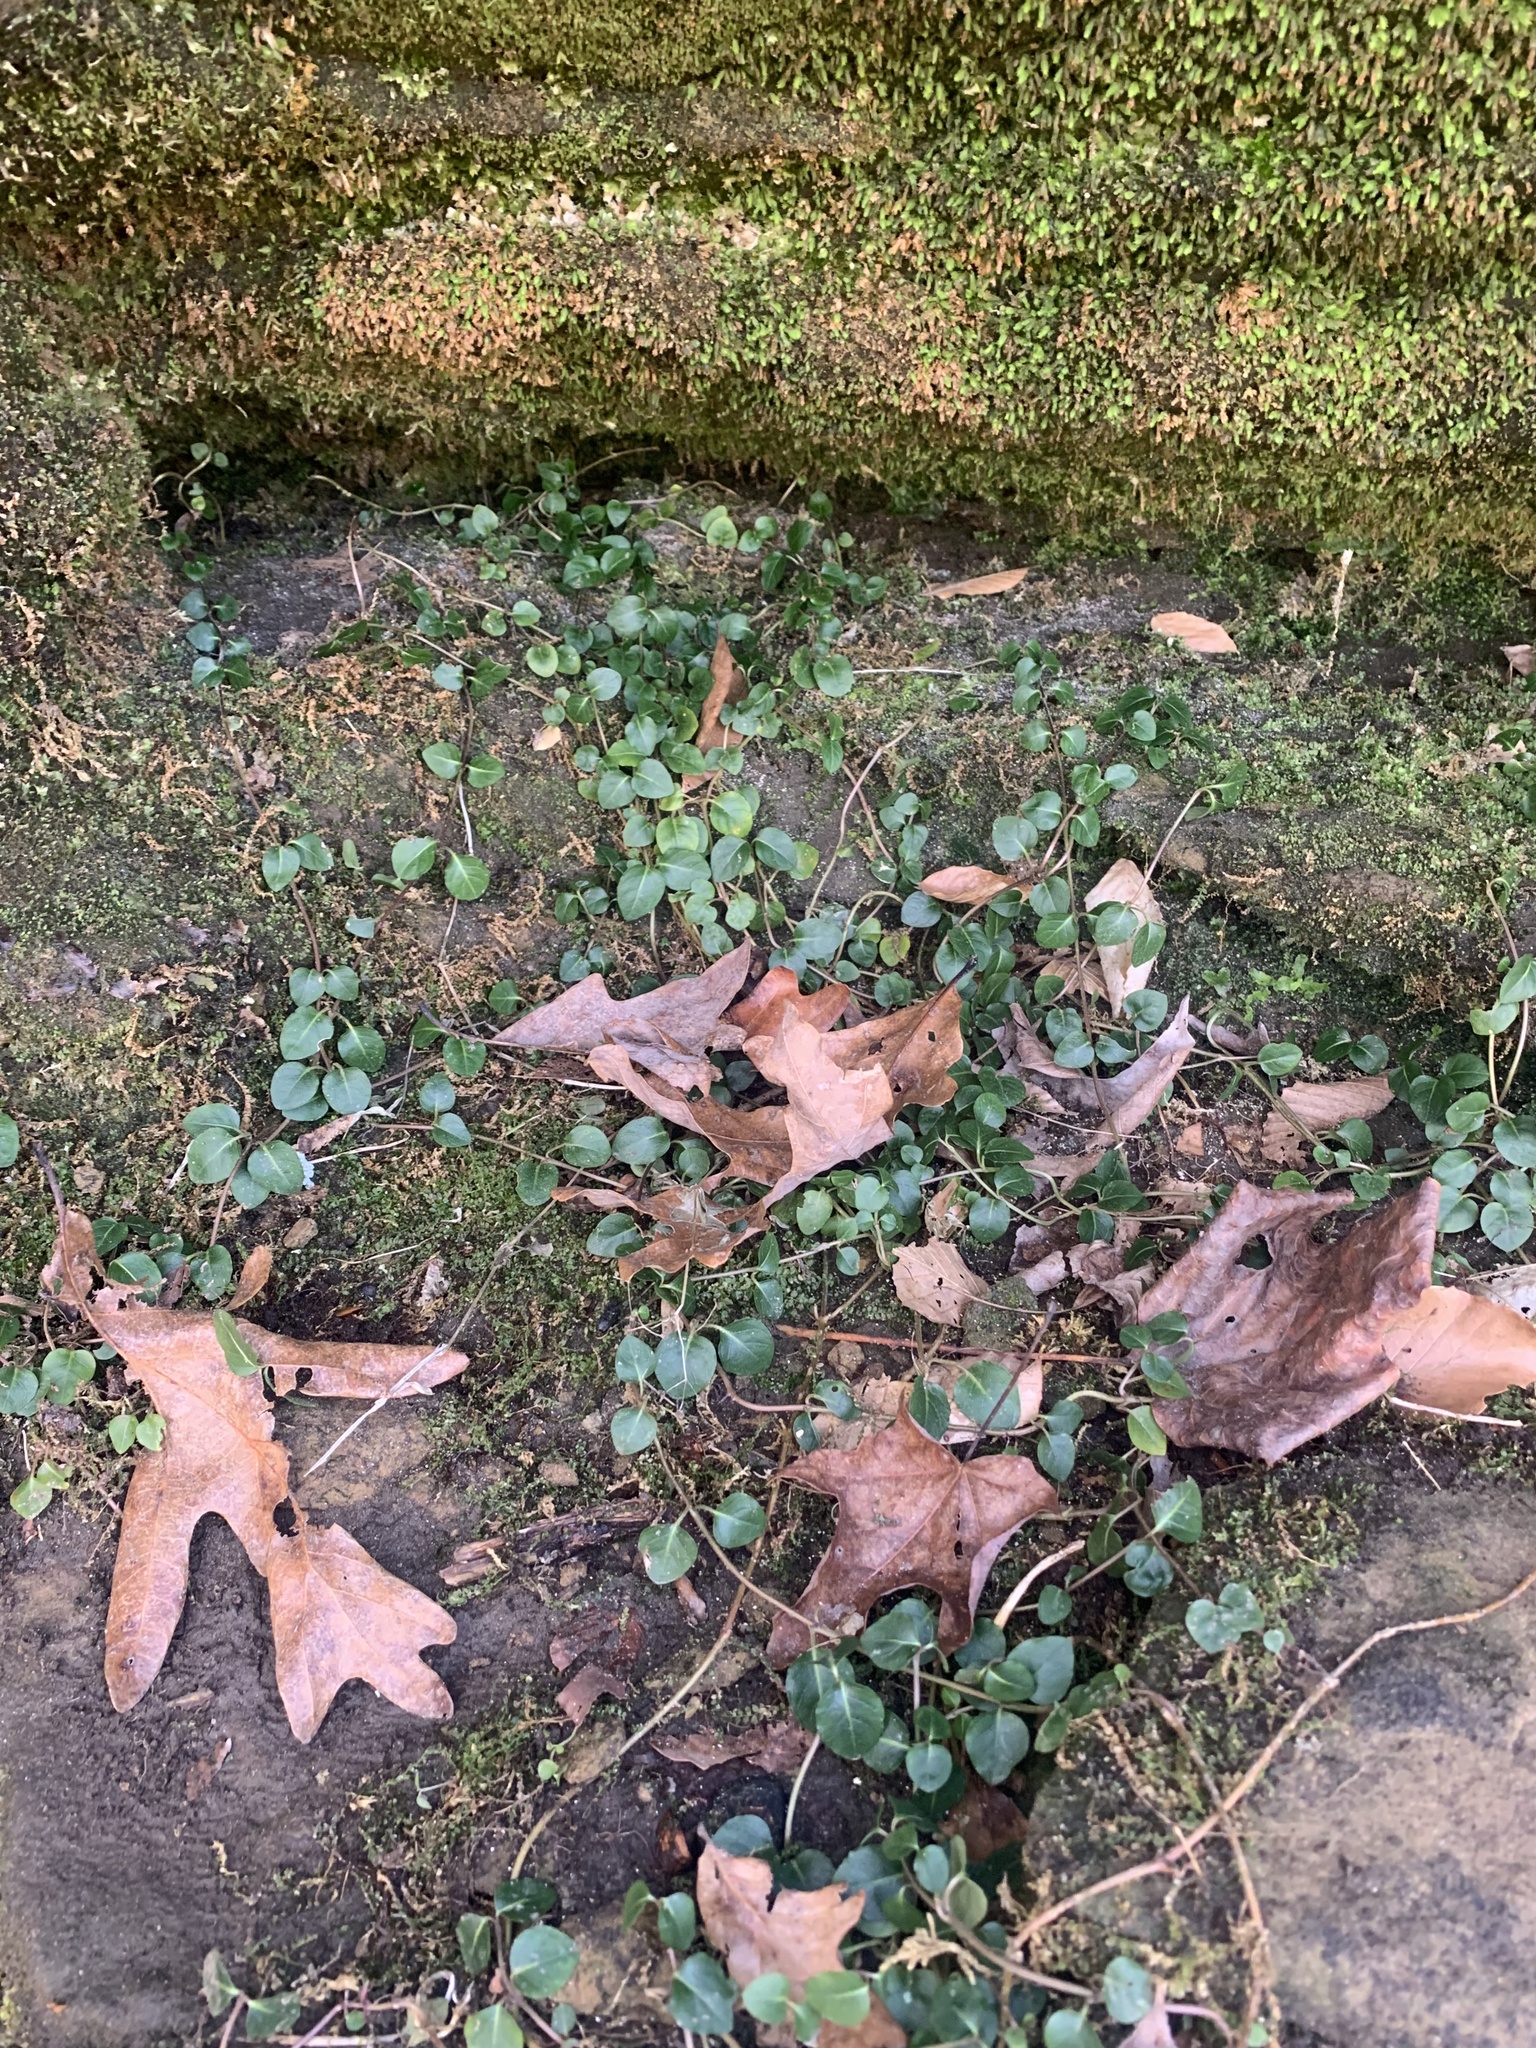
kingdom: Plantae
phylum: Tracheophyta
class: Magnoliopsida
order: Gentianales
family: Rubiaceae
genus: Mitchella
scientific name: Mitchella repens
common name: Partridge-berry
